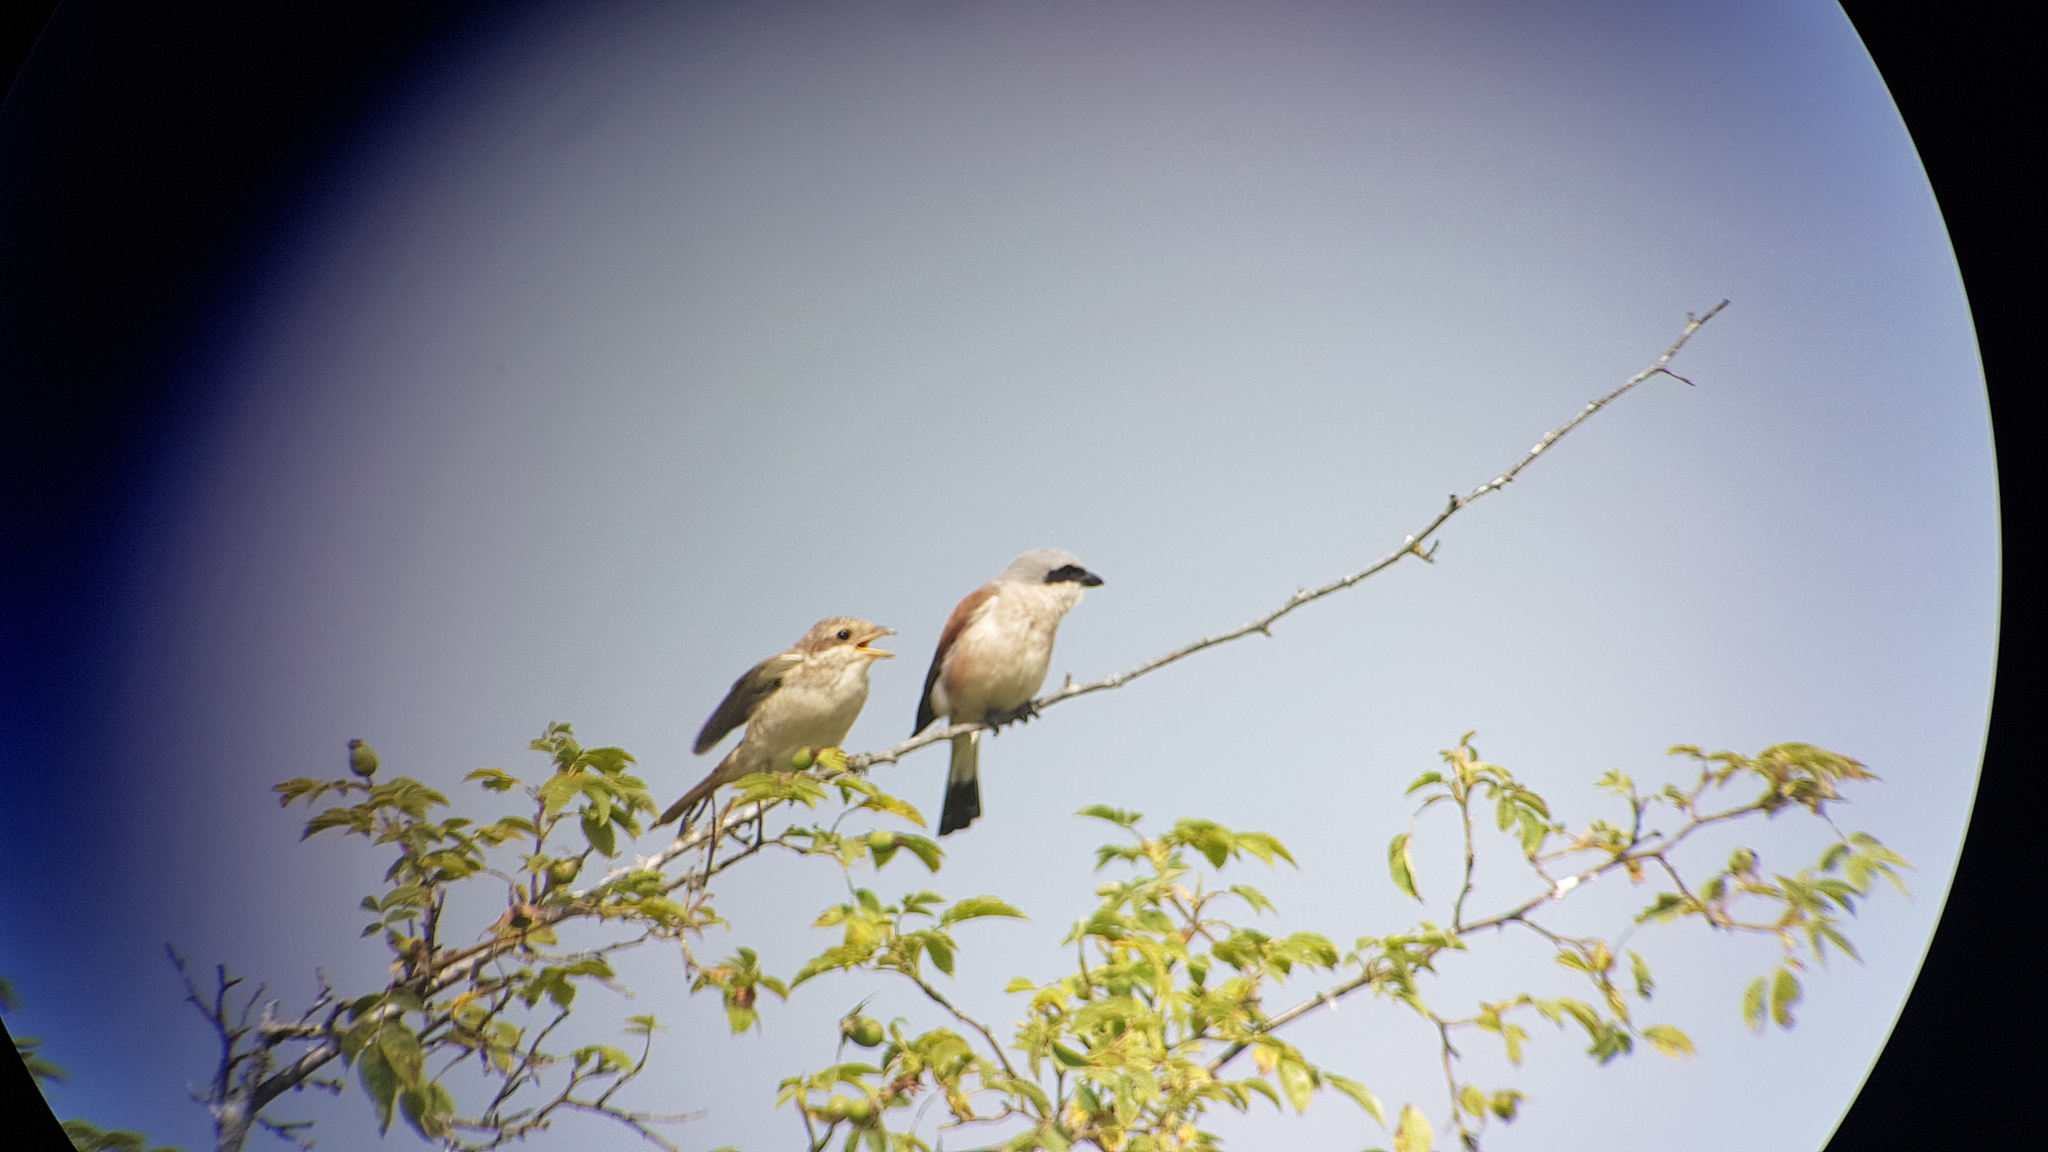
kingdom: Animalia
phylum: Chordata
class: Aves
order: Passeriformes
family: Laniidae
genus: Lanius
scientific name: Lanius collurio
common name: Red-backed shrike
